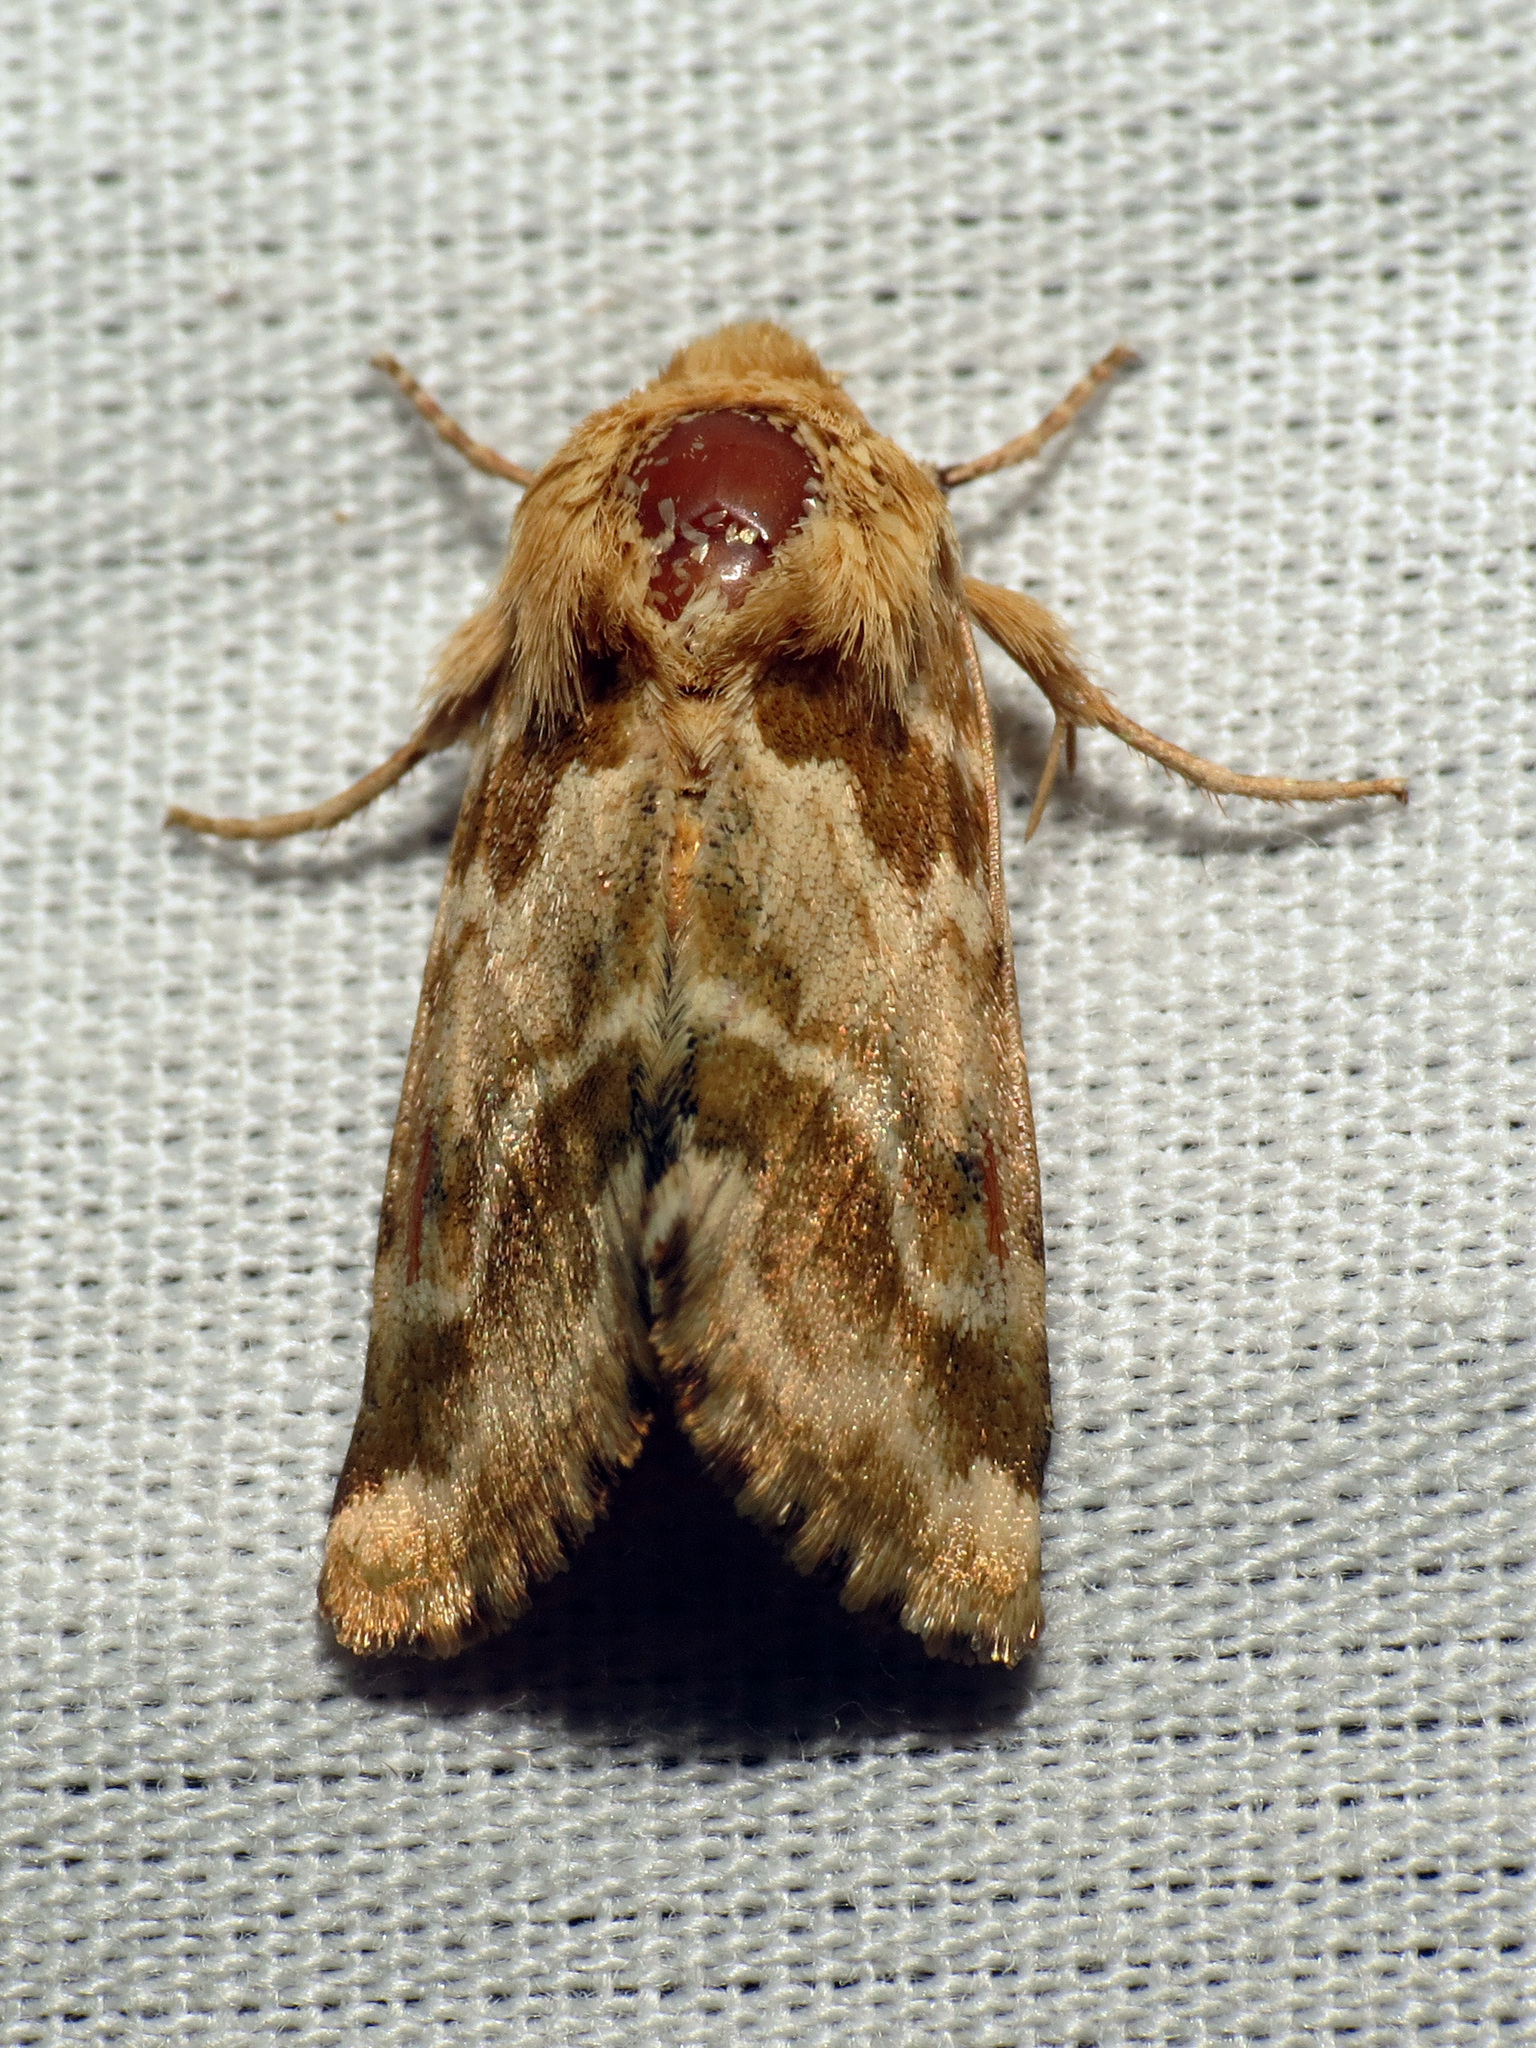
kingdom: Animalia
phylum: Arthropoda
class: Insecta
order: Lepidoptera
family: Noctuidae
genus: Schinia
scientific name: Schinia errans
